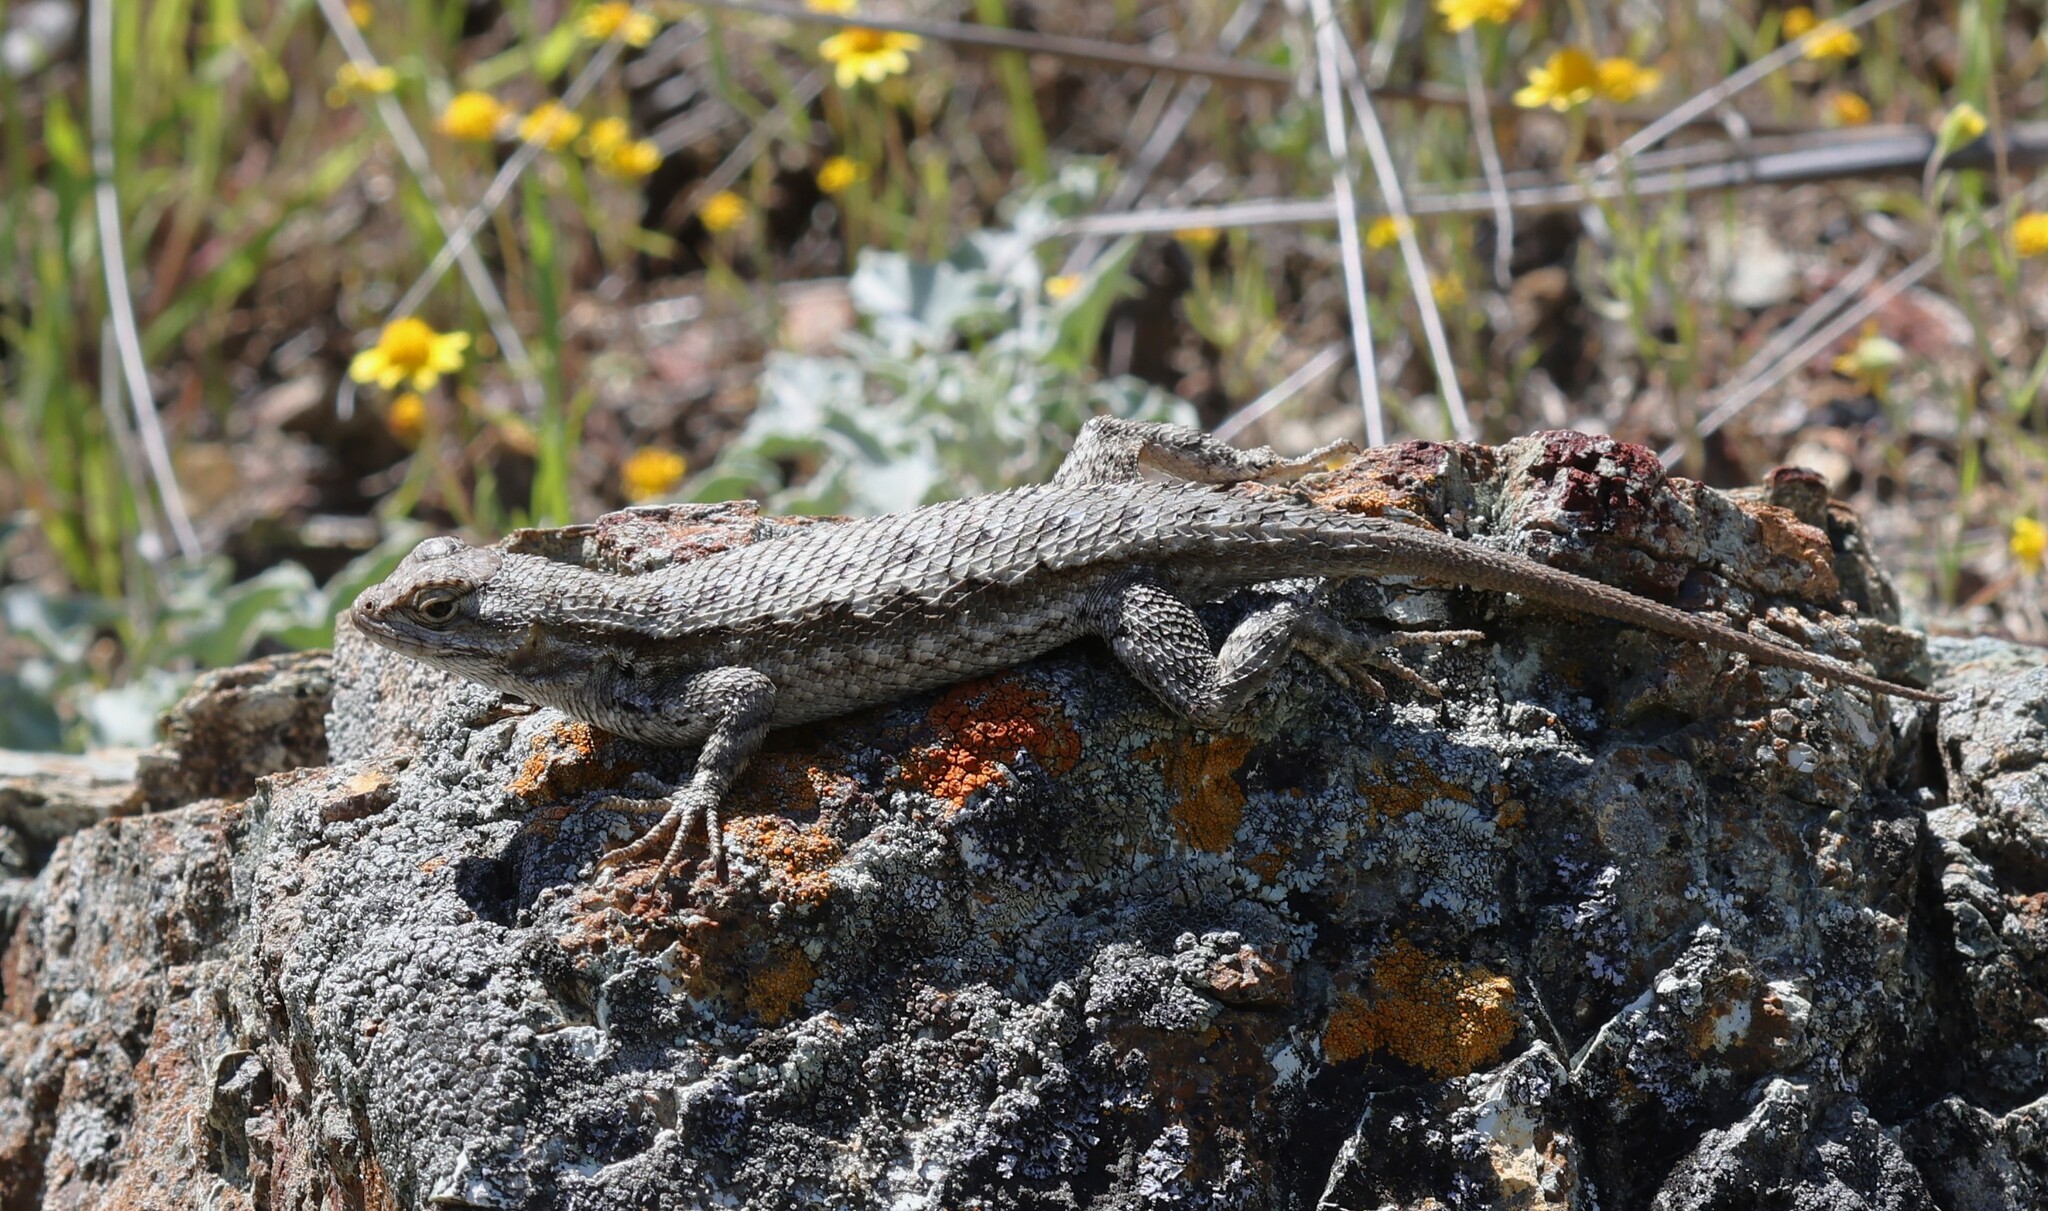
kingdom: Animalia
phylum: Chordata
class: Squamata
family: Phrynosomatidae
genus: Sceloporus
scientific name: Sceloporus occidentalis
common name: Western fence lizard
